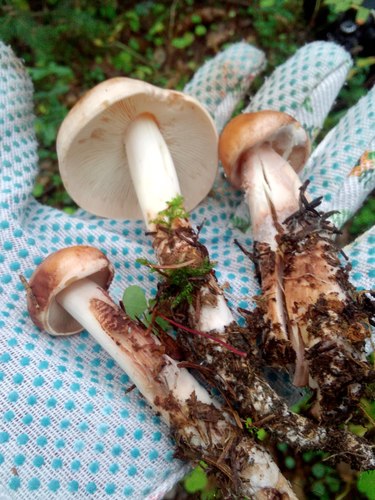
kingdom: Fungi
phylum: Basidiomycota
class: Agaricomycetes
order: Agaricales
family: Omphalotaceae
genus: Rhodocollybia
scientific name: Rhodocollybia maculata
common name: Spotted tough-shank
